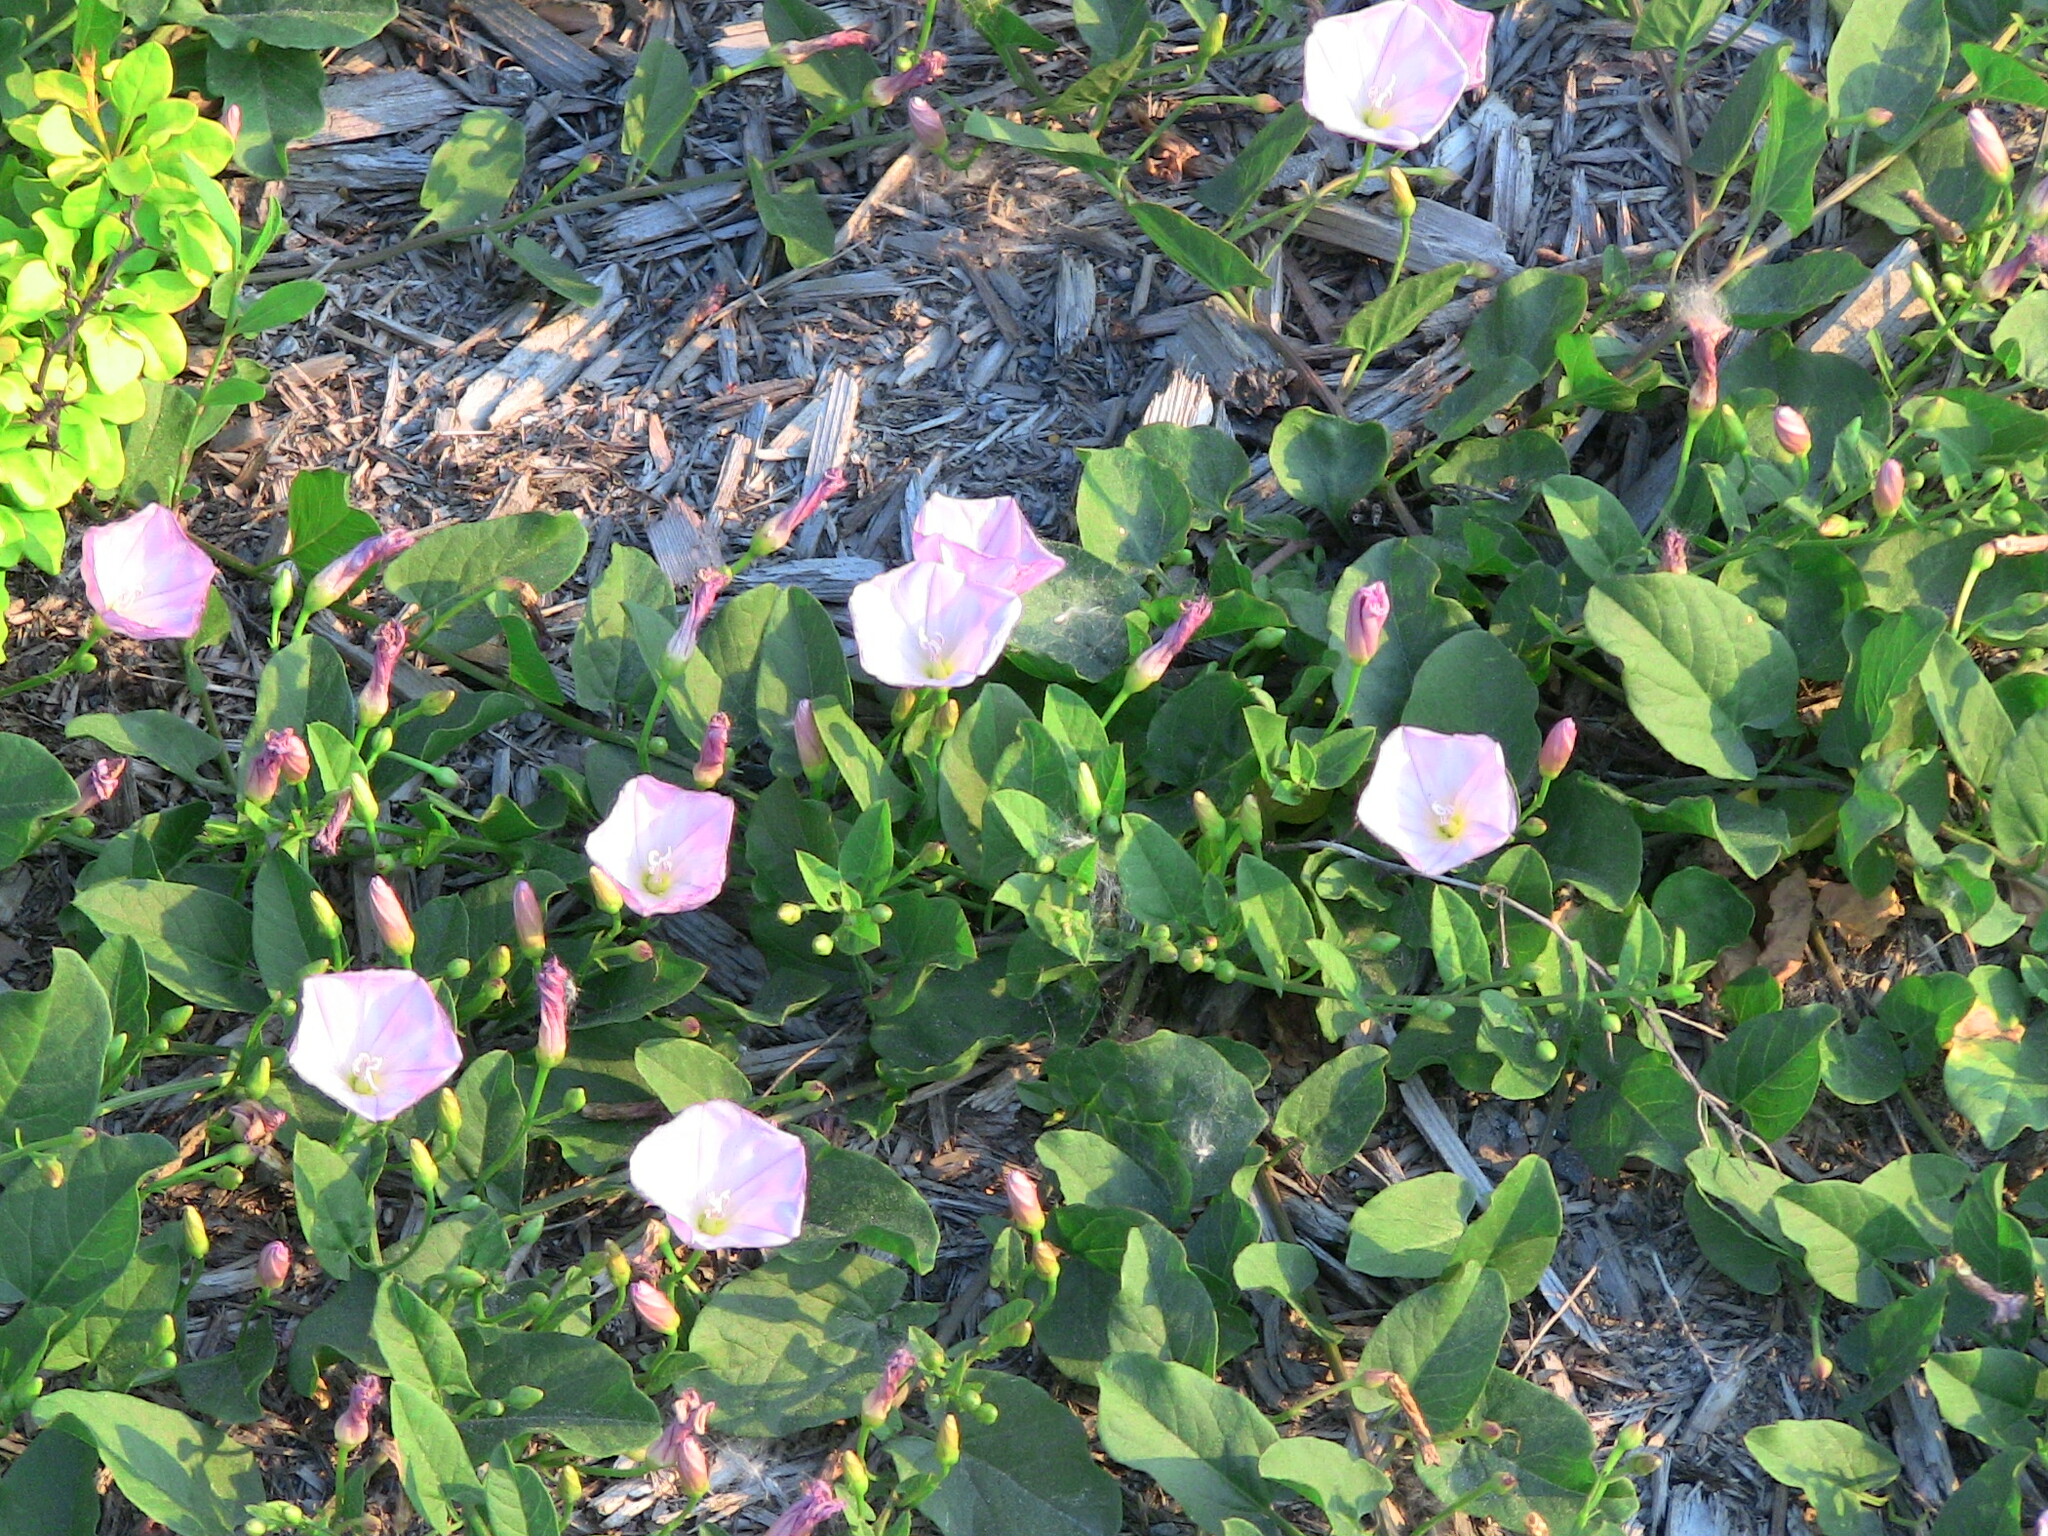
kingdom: Plantae
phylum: Tracheophyta
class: Magnoliopsida
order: Solanales
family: Convolvulaceae
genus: Convolvulus
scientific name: Convolvulus arvensis
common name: Field bindweed
